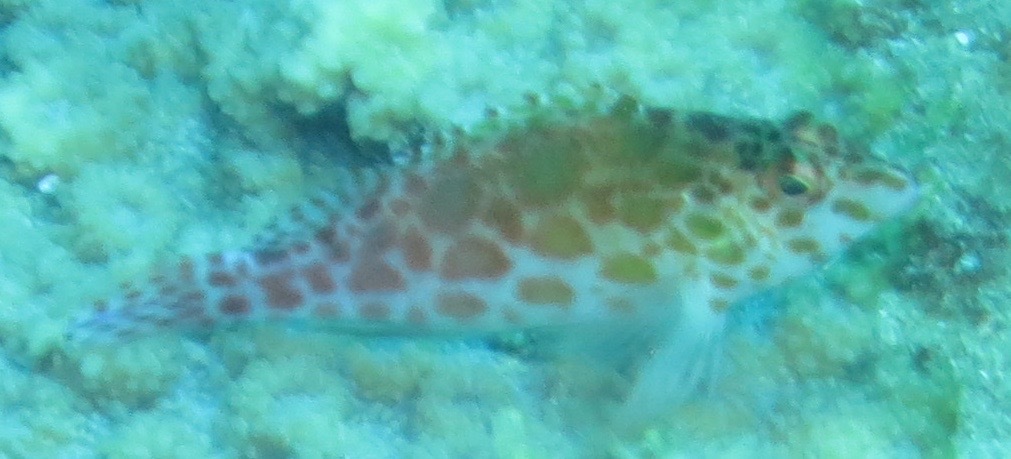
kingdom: Animalia
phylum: Chordata
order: Perciformes
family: Cirrhitidae
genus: Cirrhitichthys
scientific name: Cirrhitichthys oxycephalus
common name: Spotted hawkfish
